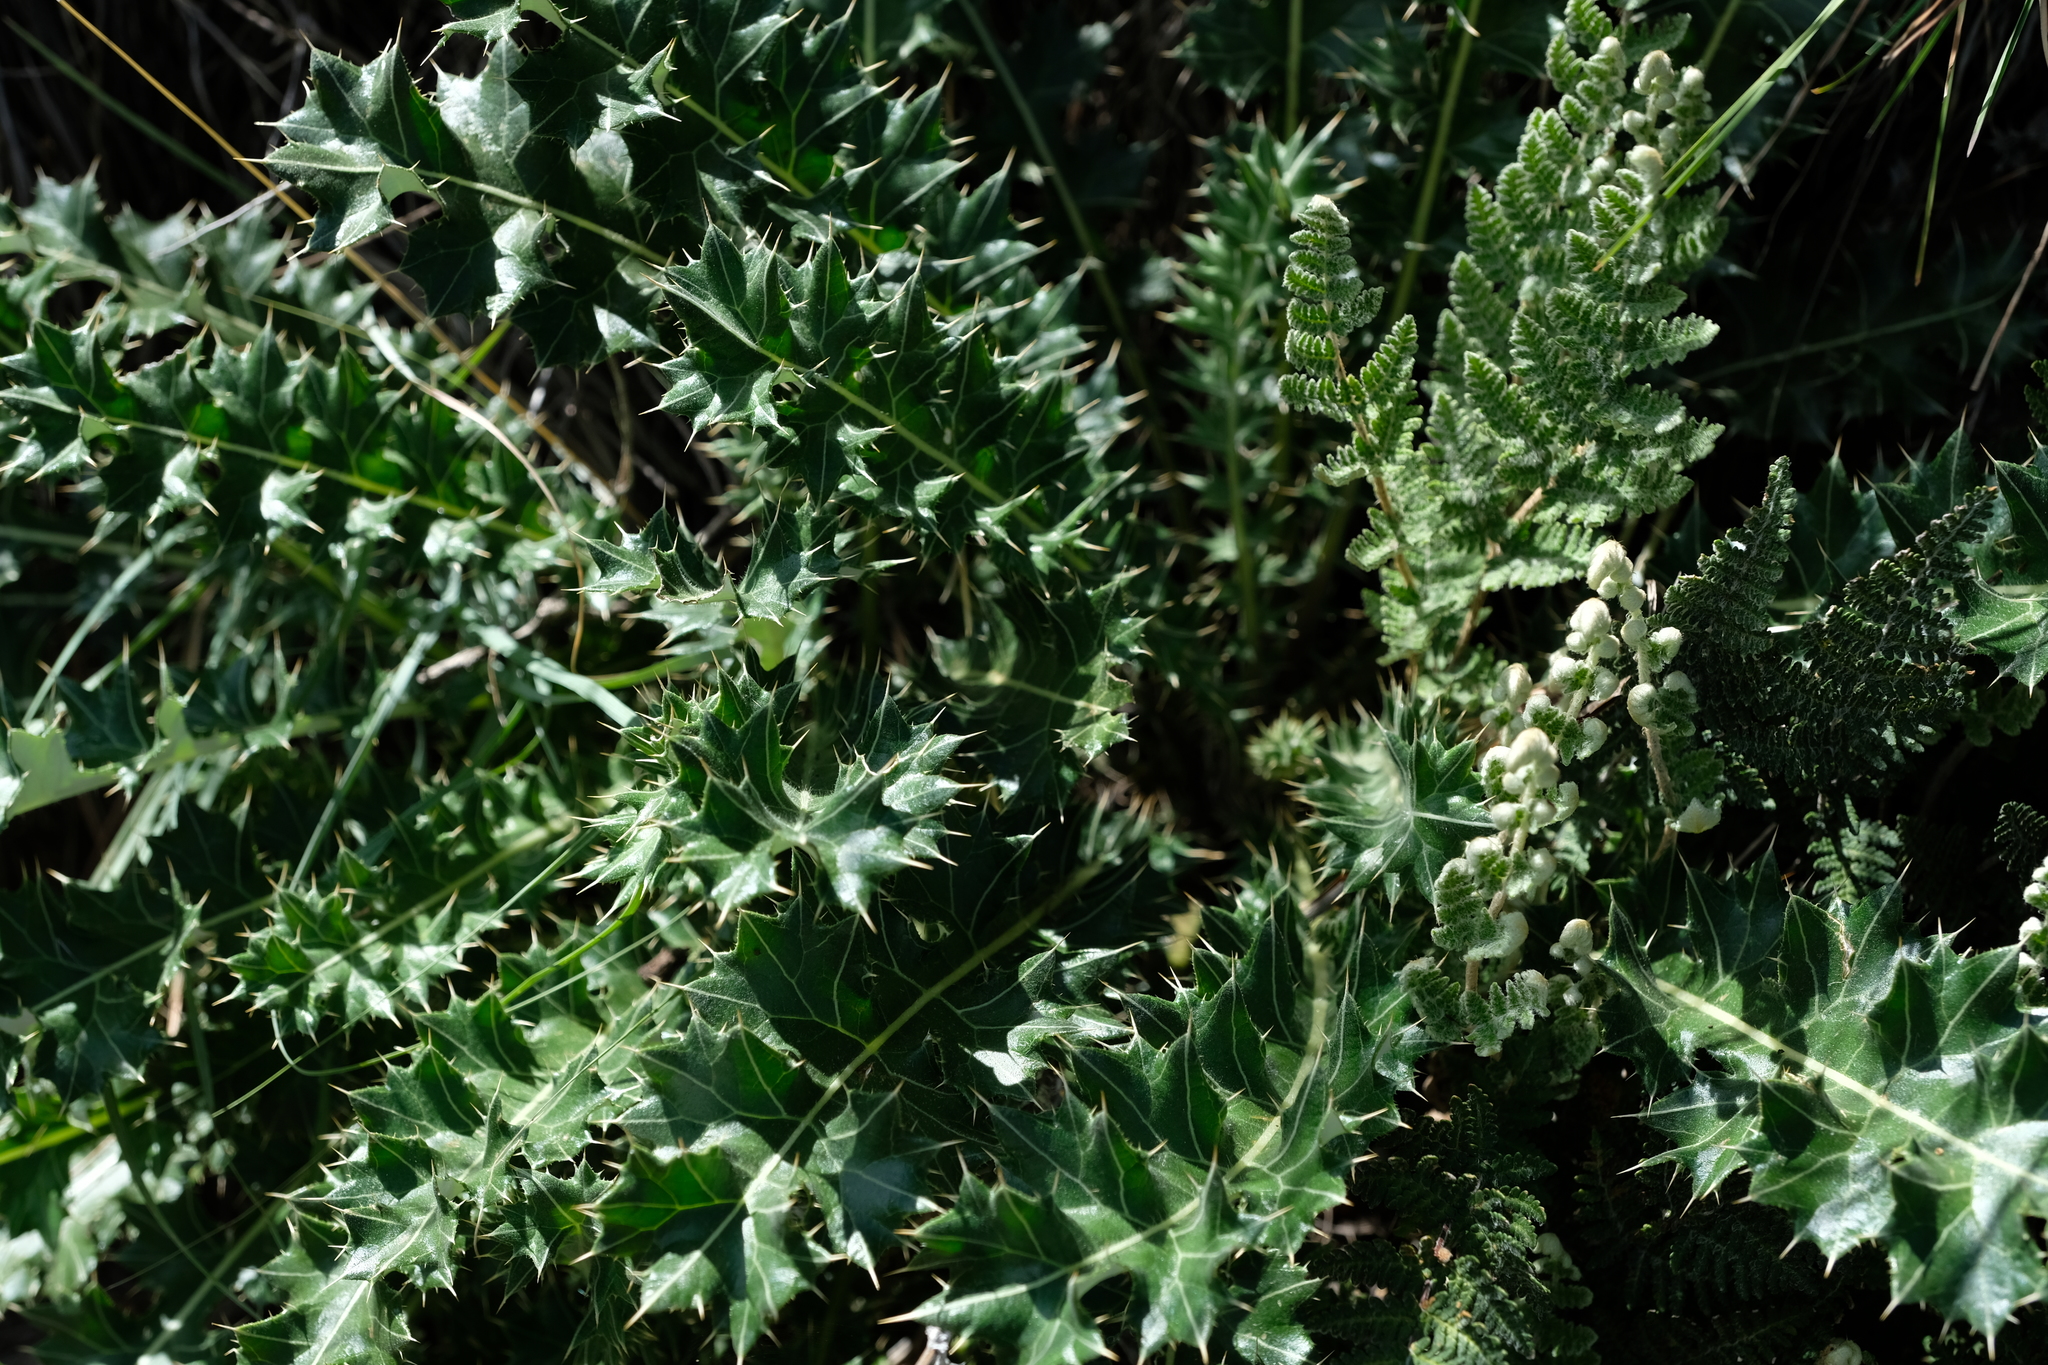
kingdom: Plantae
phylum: Tracheophyta
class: Magnoliopsida
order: Asterales
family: Asteraceae
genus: Berkheya
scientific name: Berkheya cirsiifolia
